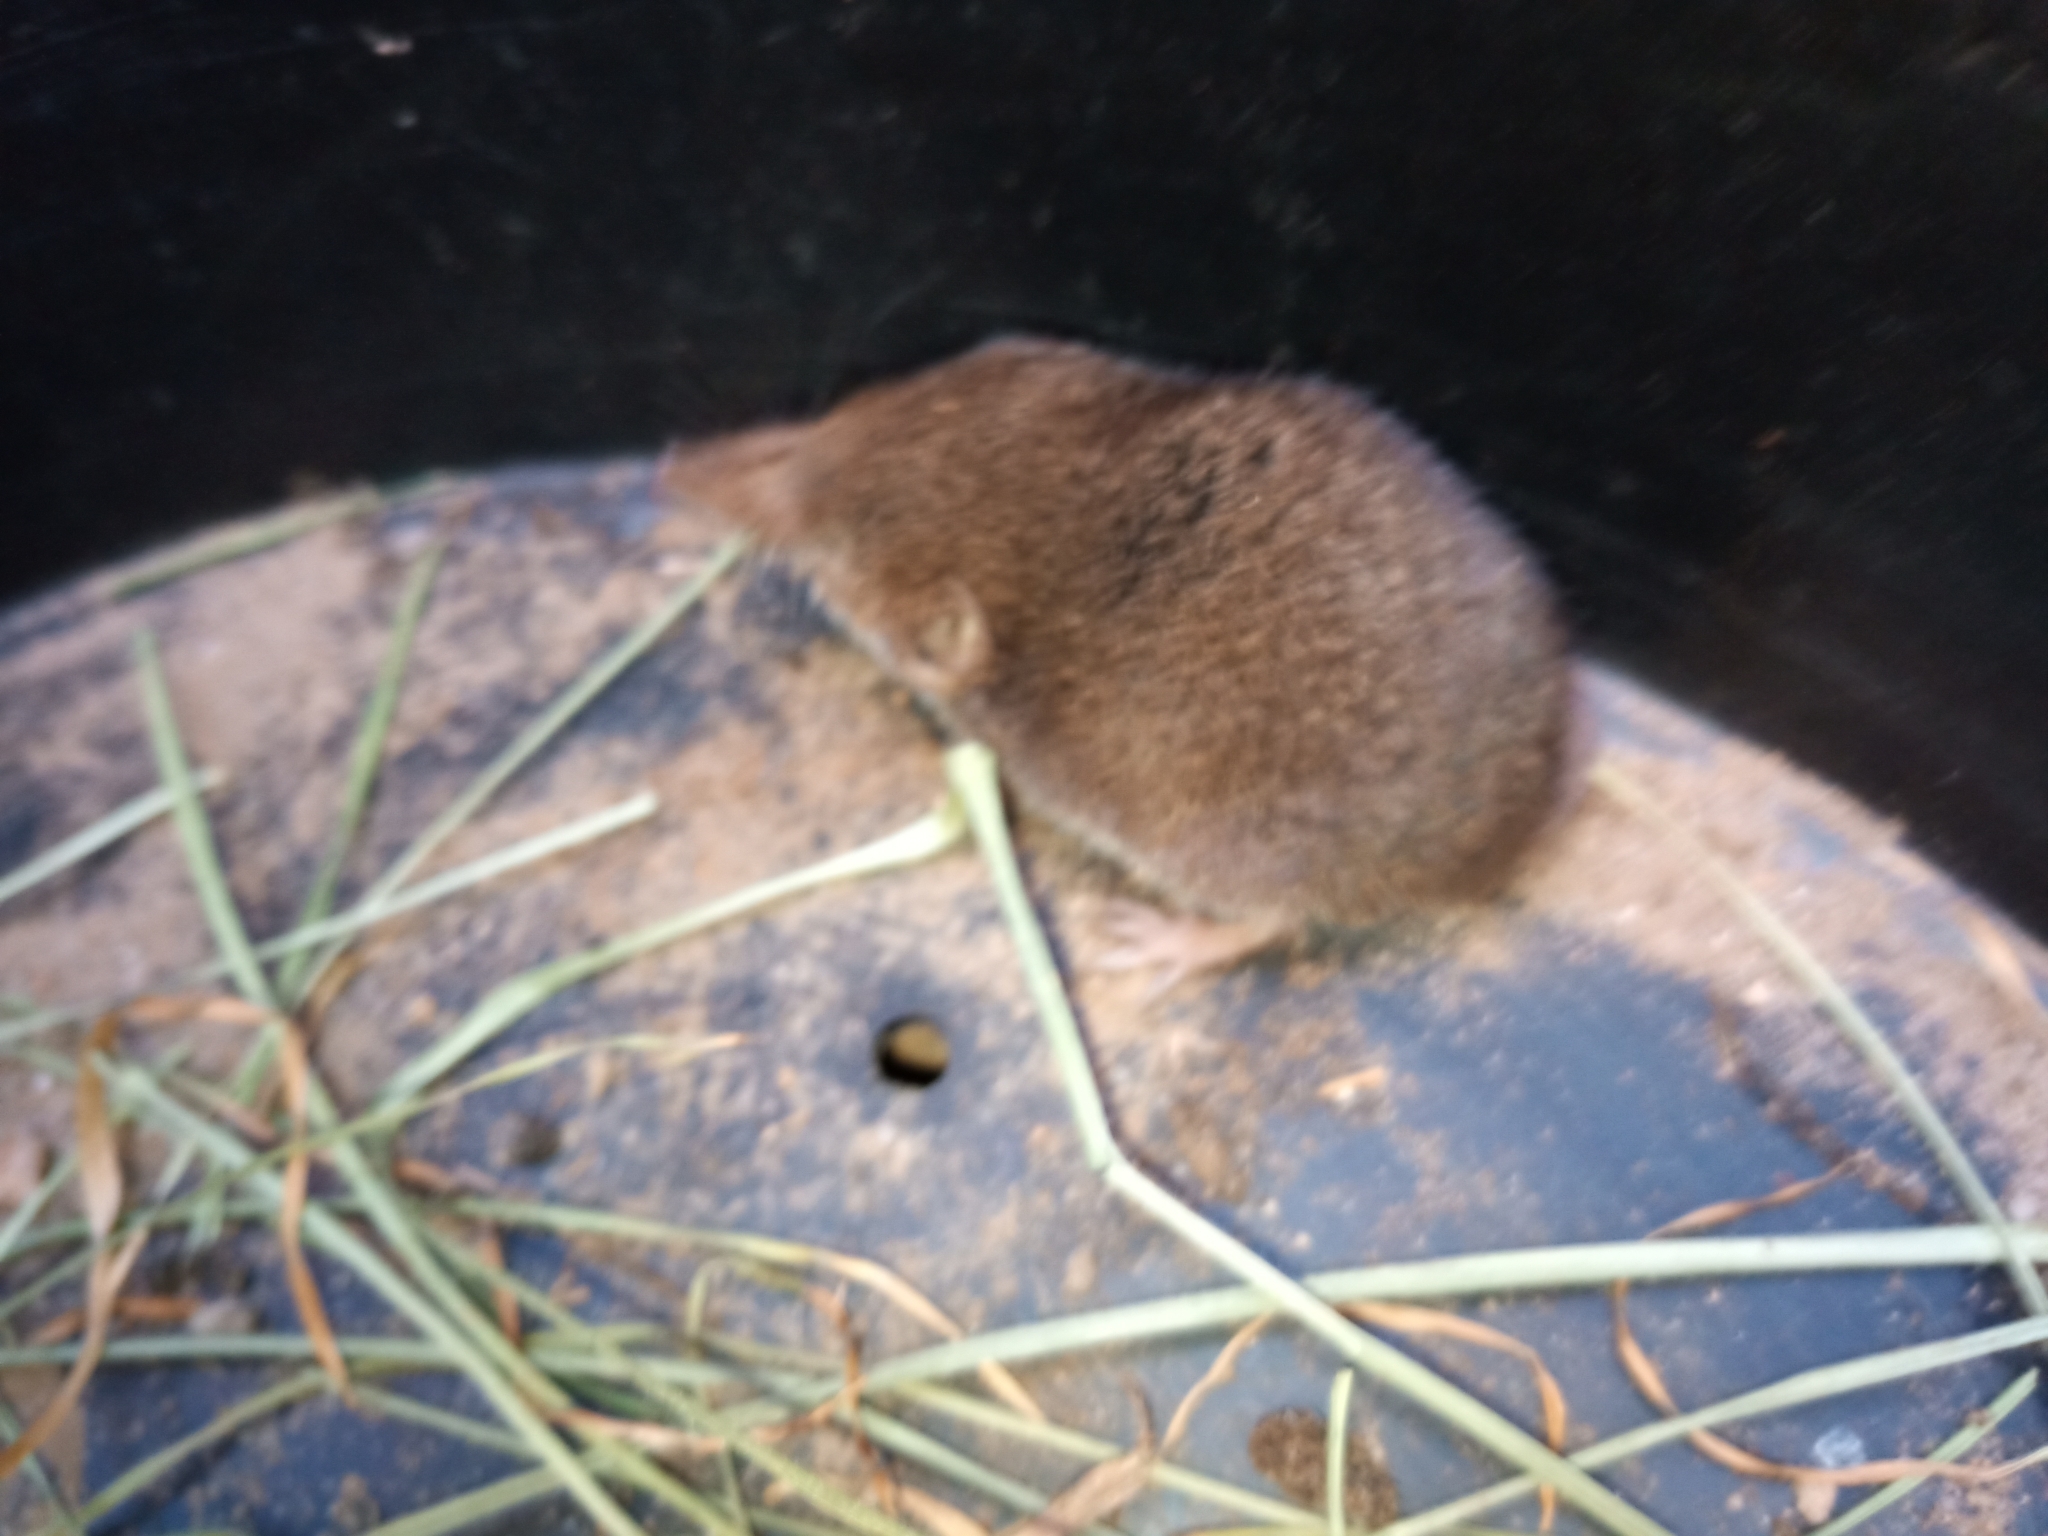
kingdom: Animalia
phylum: Chordata
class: Mammalia
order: Soricomorpha
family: Soricidae
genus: Myosorex
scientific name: Myosorex varius
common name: Forest shrew
